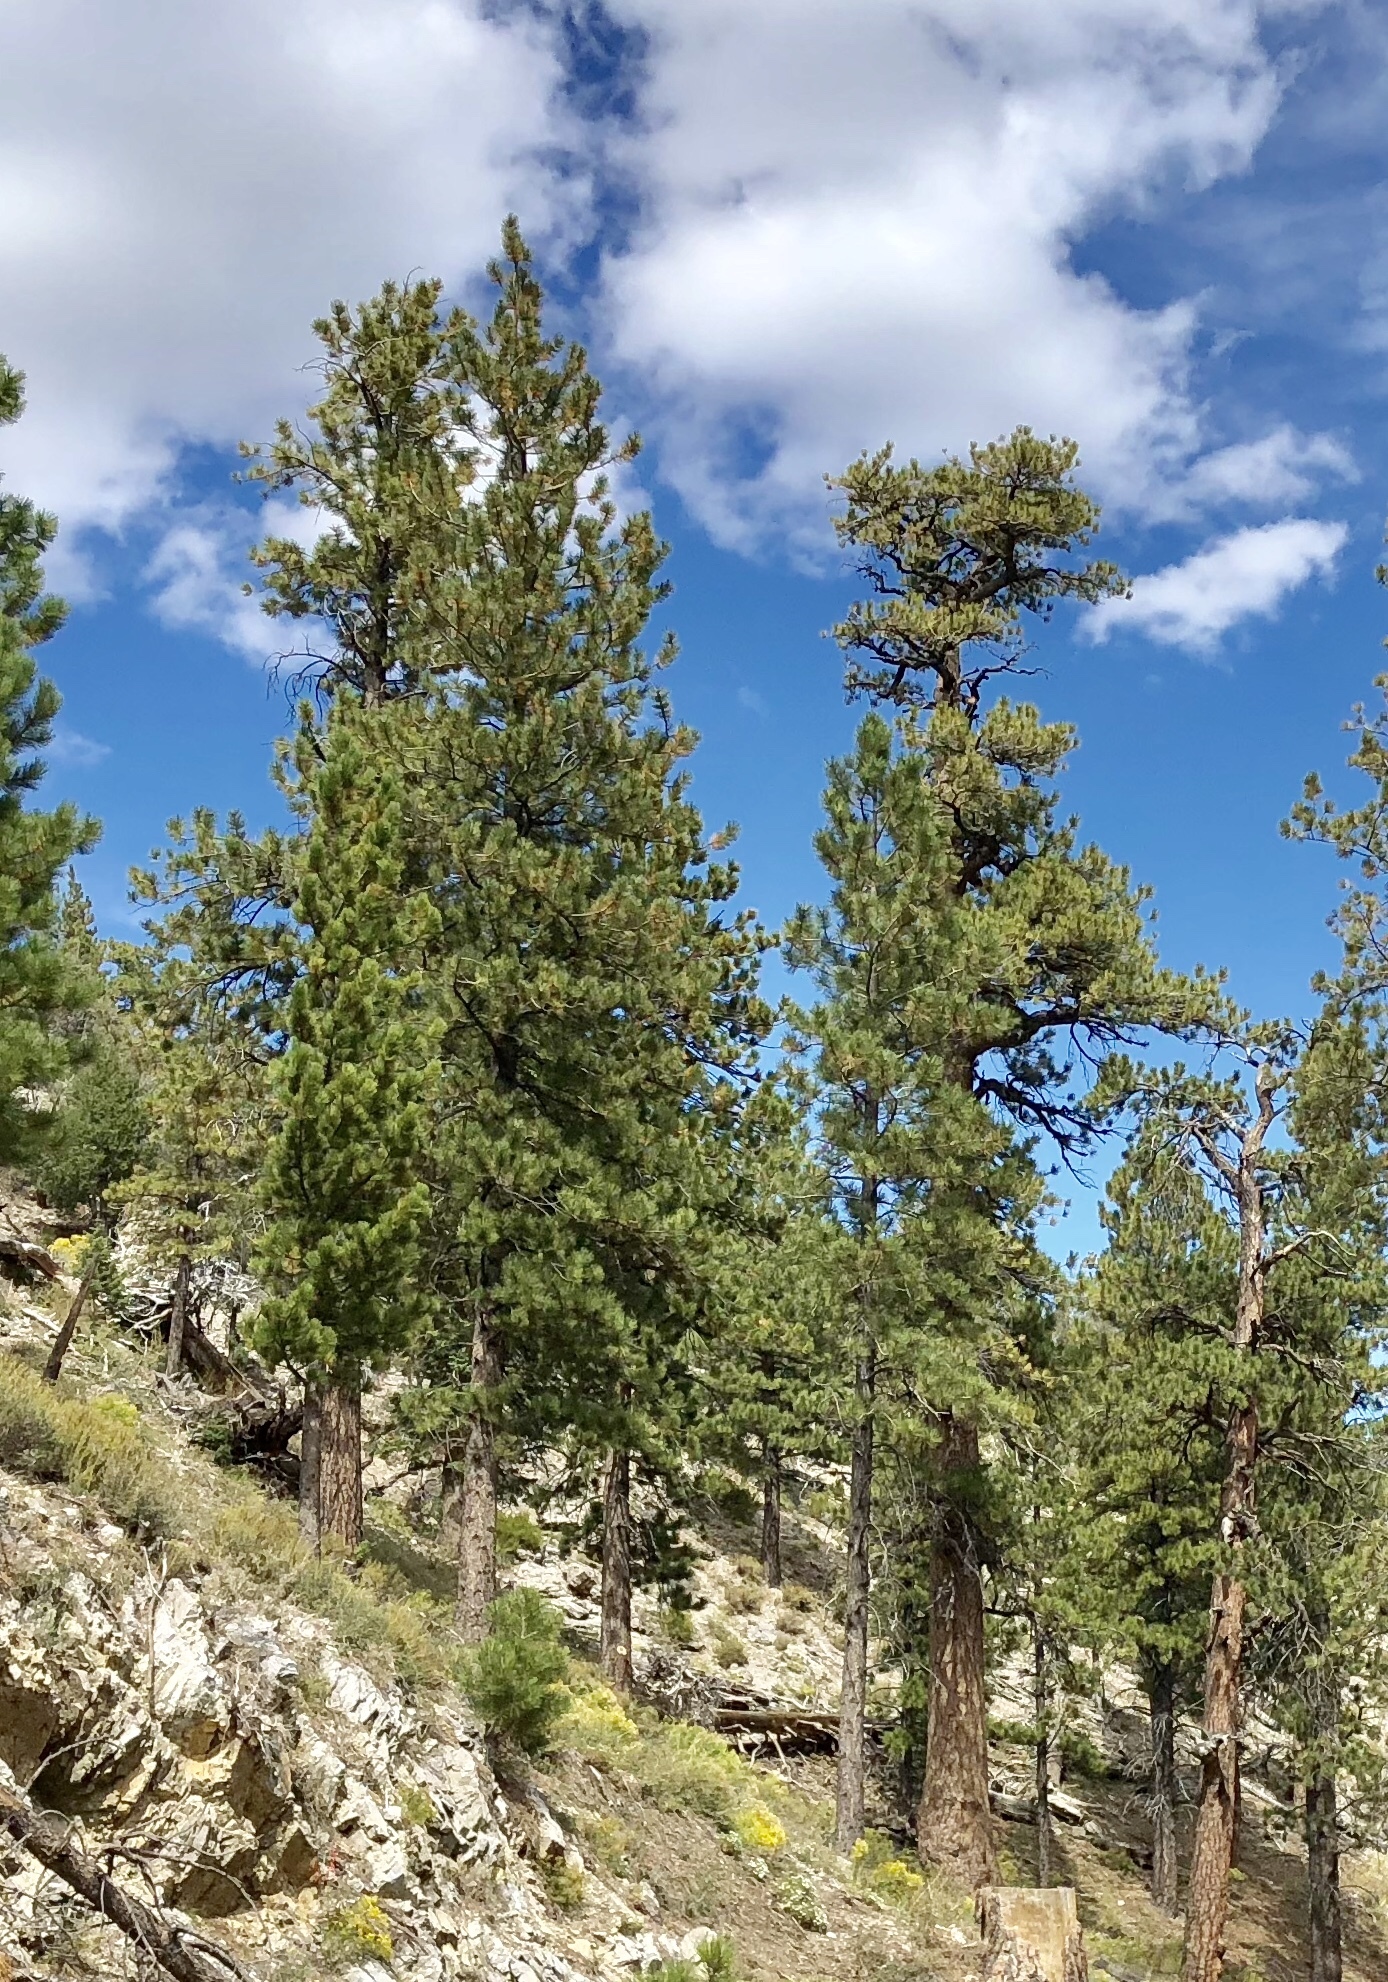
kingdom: Plantae
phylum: Tracheophyta
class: Pinopsida
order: Pinales
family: Pinaceae
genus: Pinus
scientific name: Pinus ponderosa
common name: Western yellow-pine
